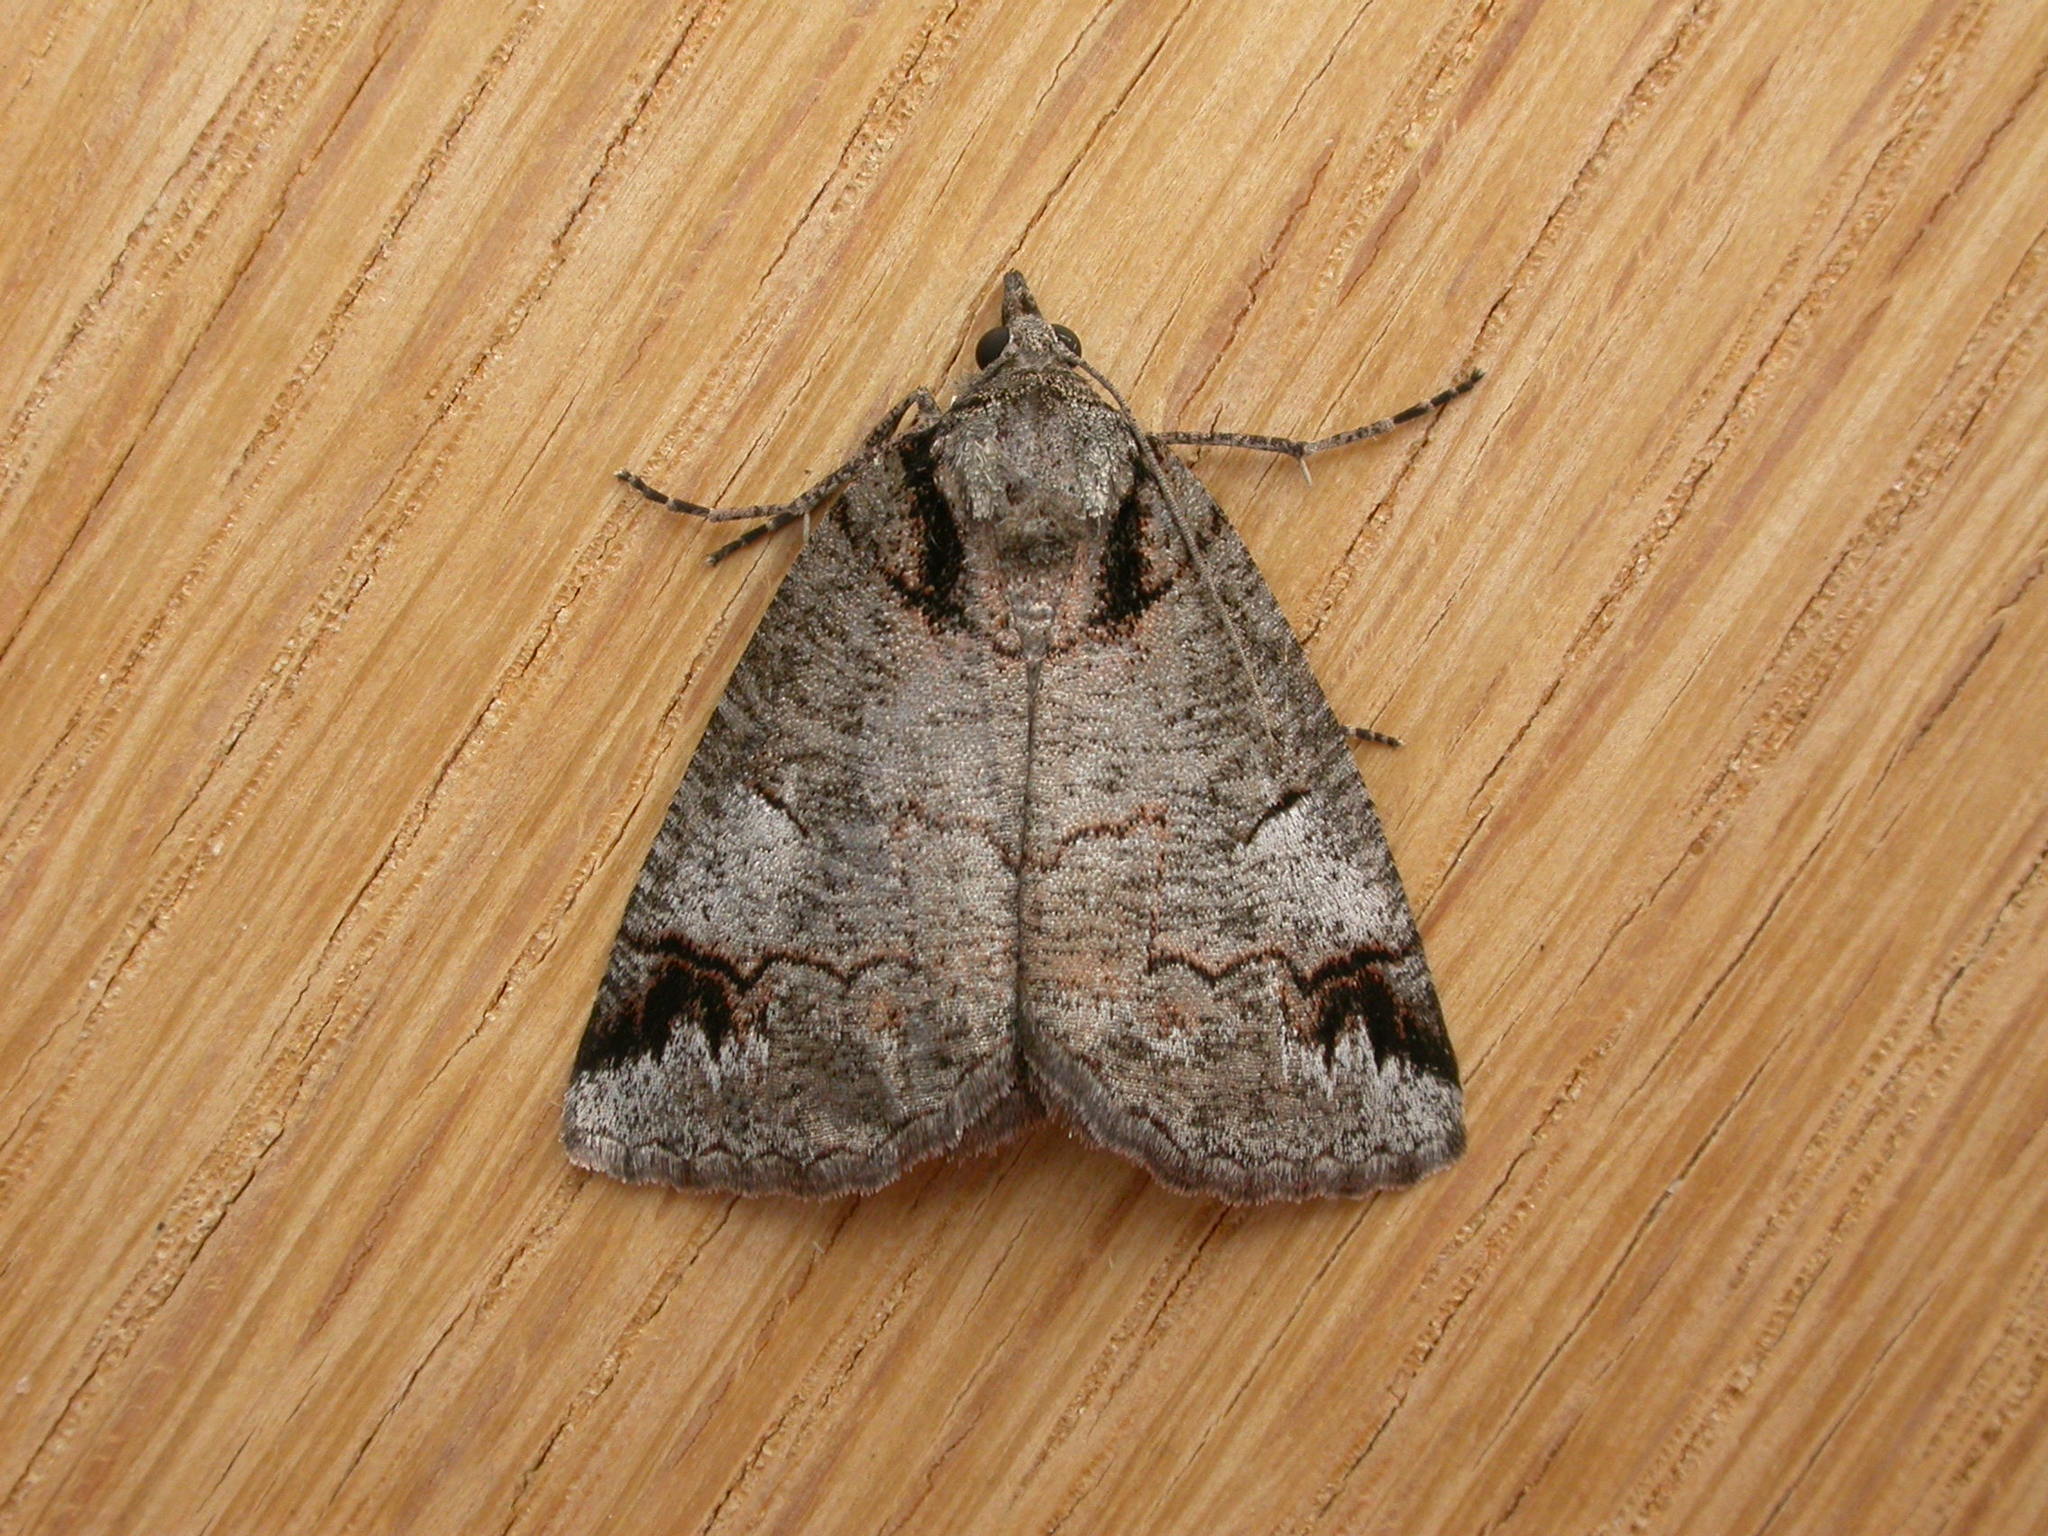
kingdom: Animalia
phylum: Arthropoda
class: Insecta
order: Lepidoptera
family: Geometridae
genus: Austroterpna
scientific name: Austroterpna paratorna
